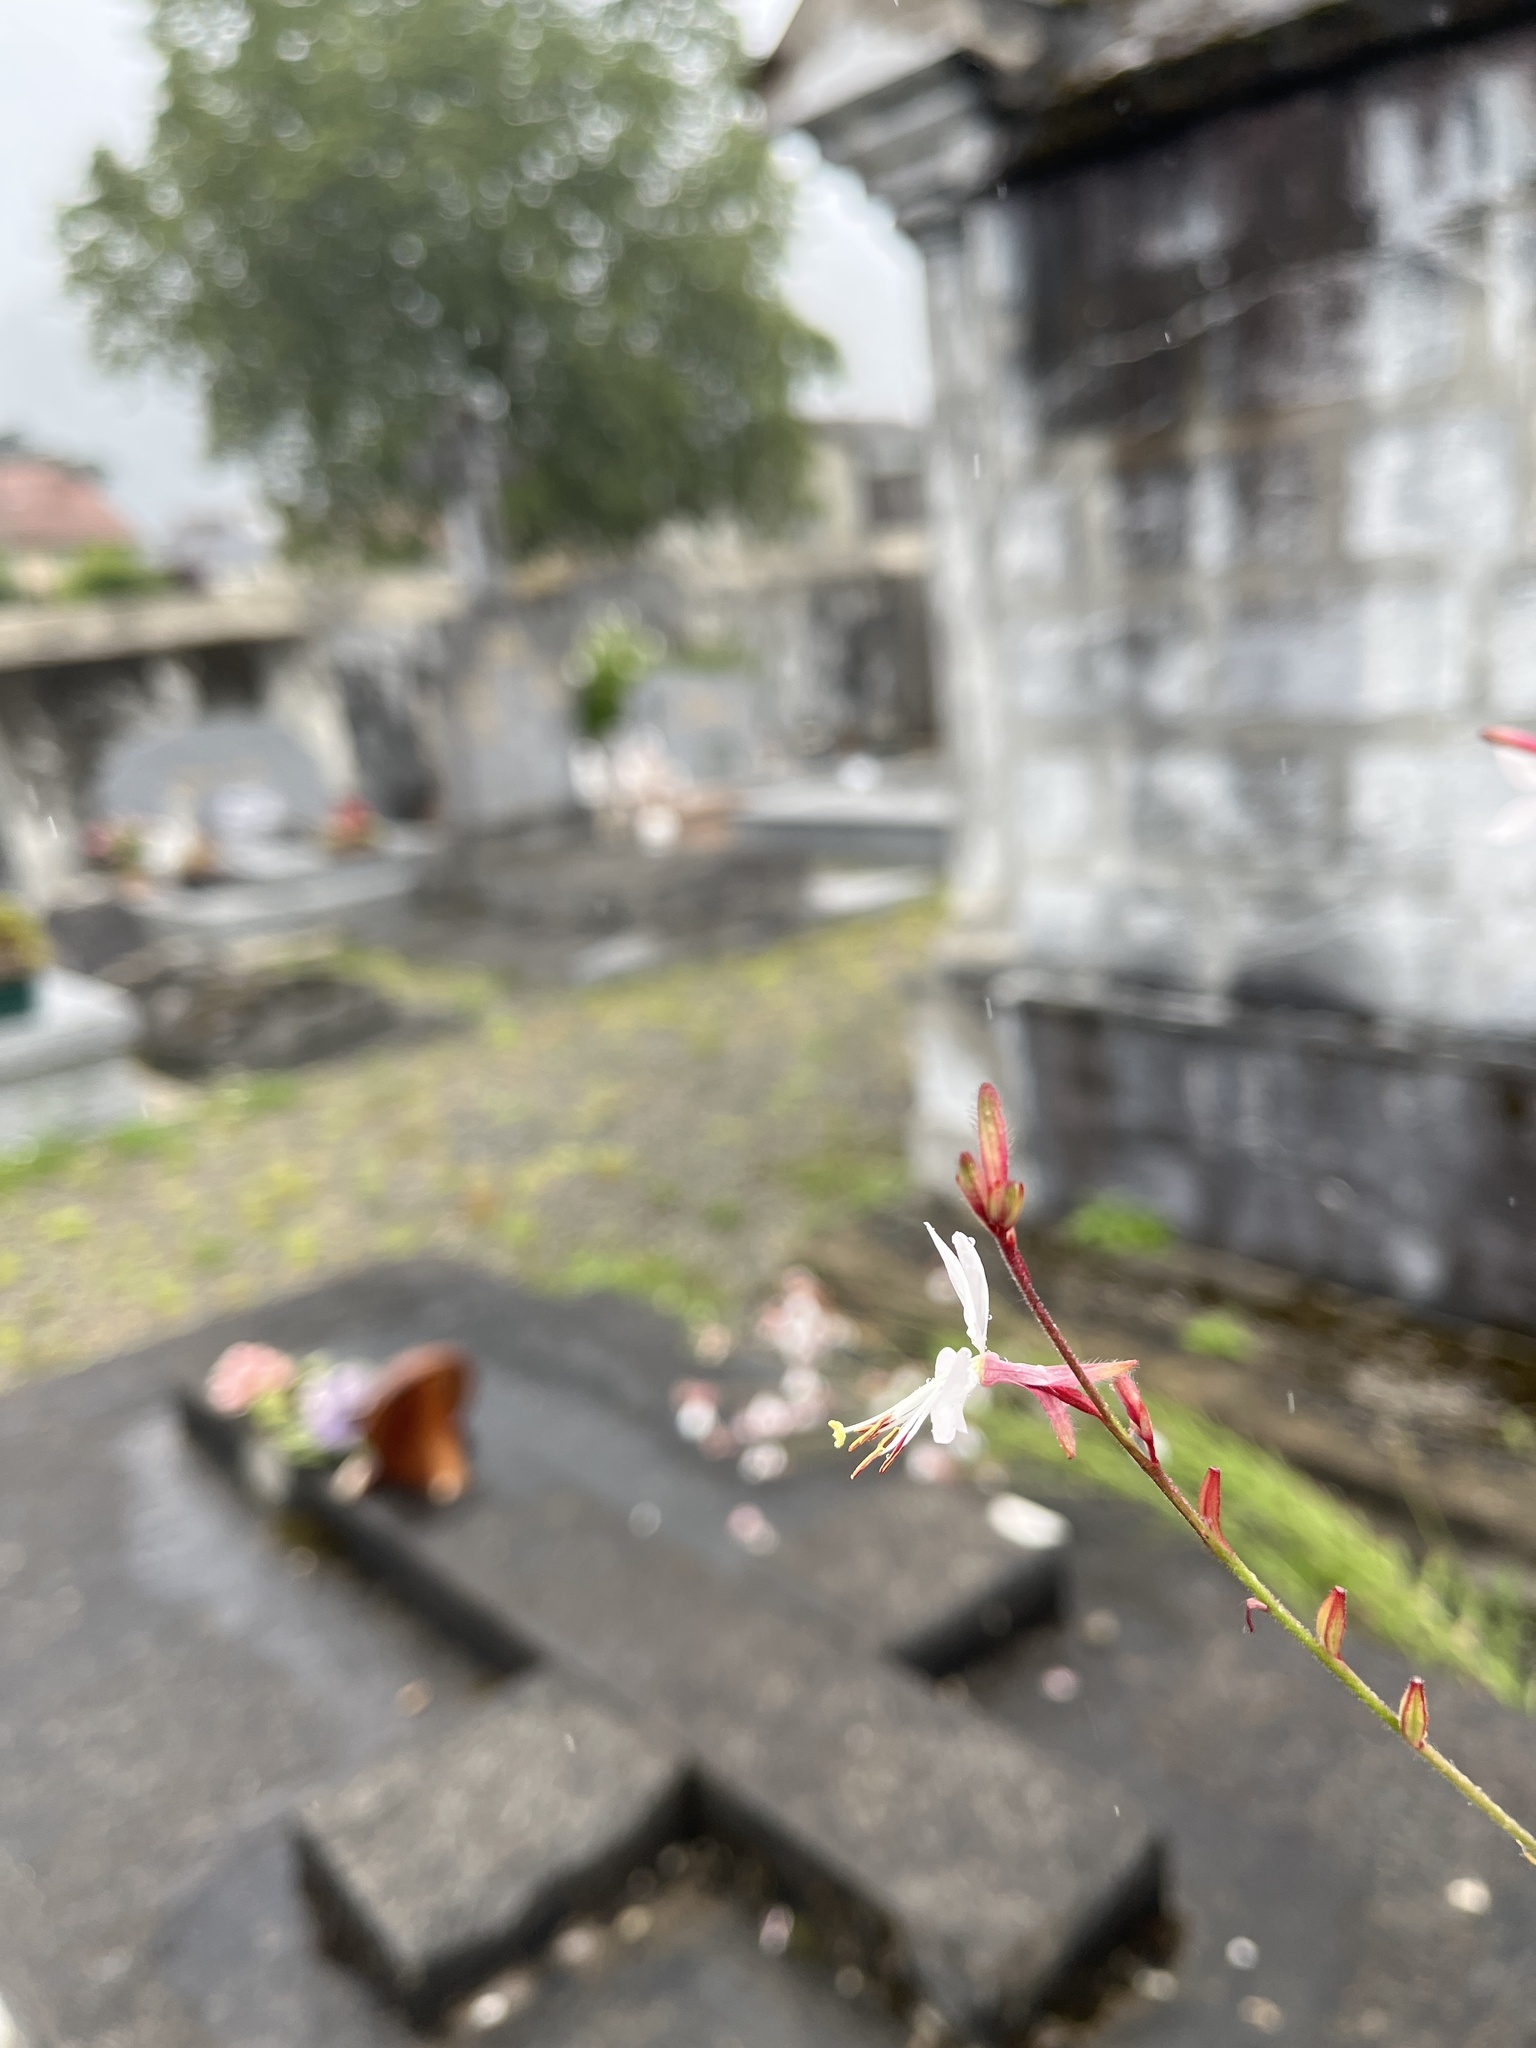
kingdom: Plantae
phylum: Tracheophyta
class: Magnoliopsida
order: Myrtales
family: Onagraceae
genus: Oenothera
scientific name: Oenothera lindheimeri
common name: Lindheimer's beeblossom
